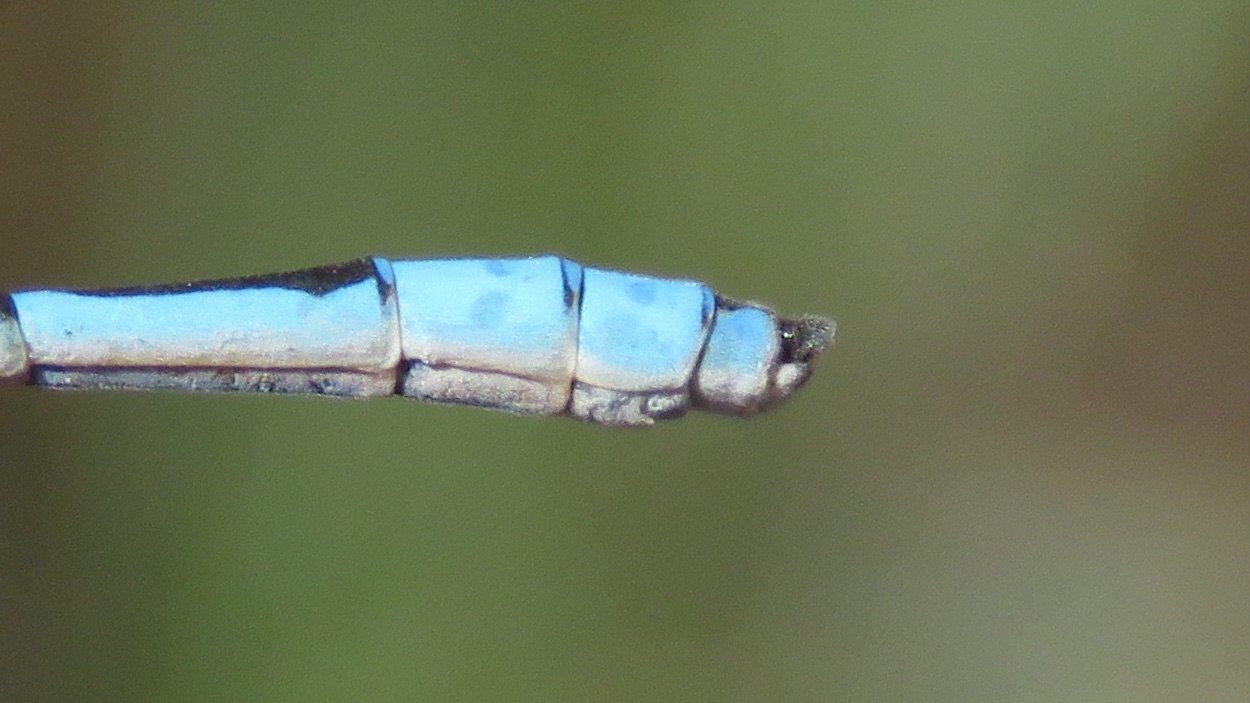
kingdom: Animalia
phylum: Arthropoda
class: Insecta
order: Odonata
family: Coenagrionidae
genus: Enallagma
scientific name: Enallagma civile
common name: Damselfly
